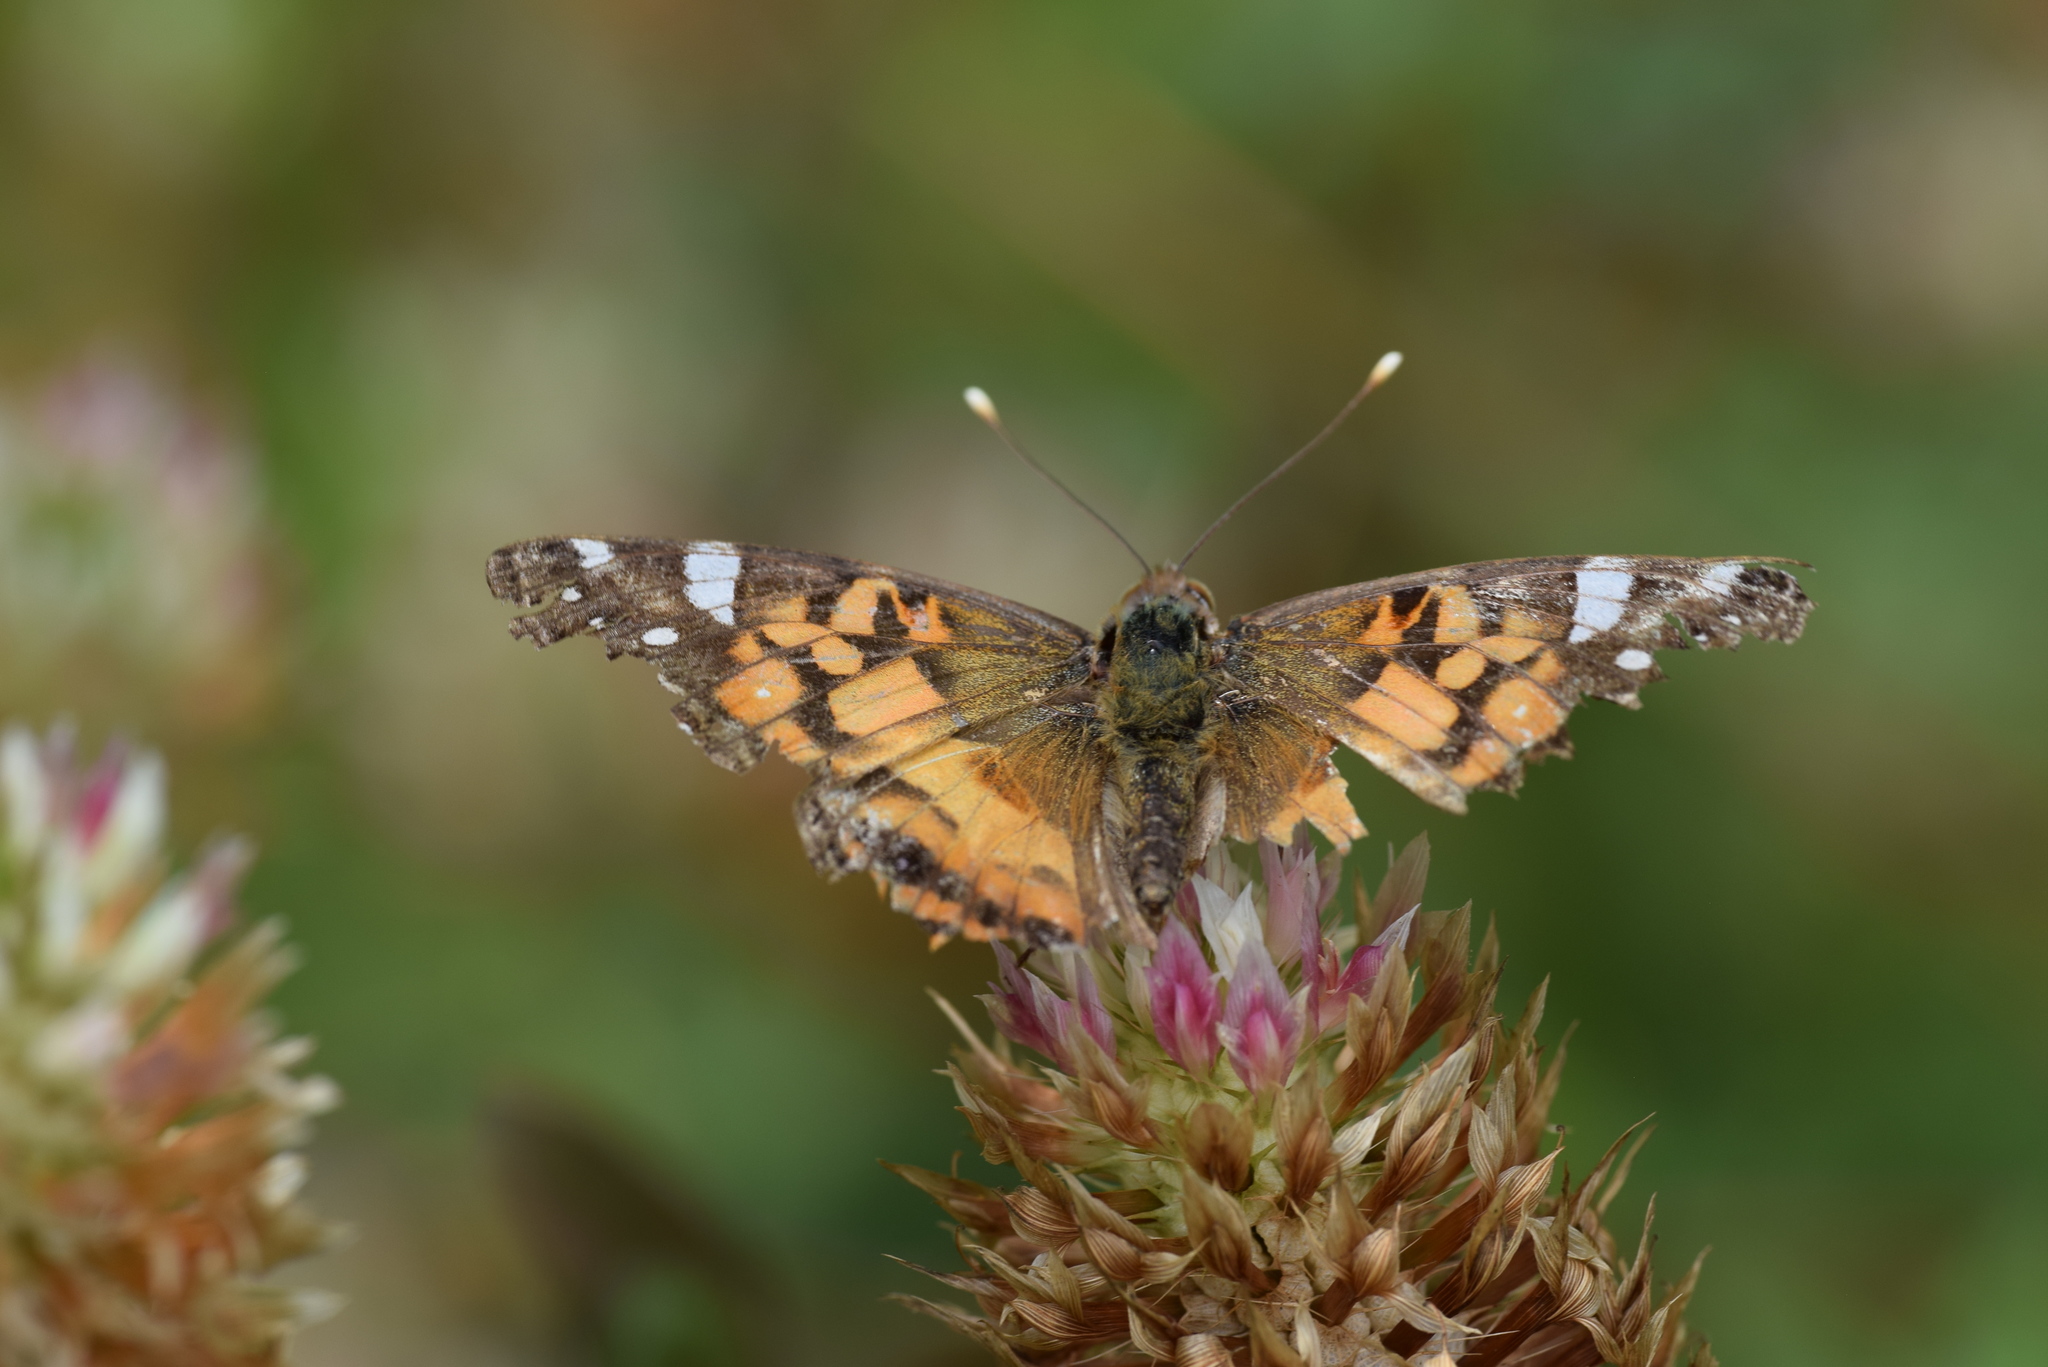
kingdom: Animalia
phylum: Arthropoda
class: Insecta
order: Lepidoptera
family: Nymphalidae
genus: Vanessa
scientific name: Vanessa virginiensis
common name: American lady
